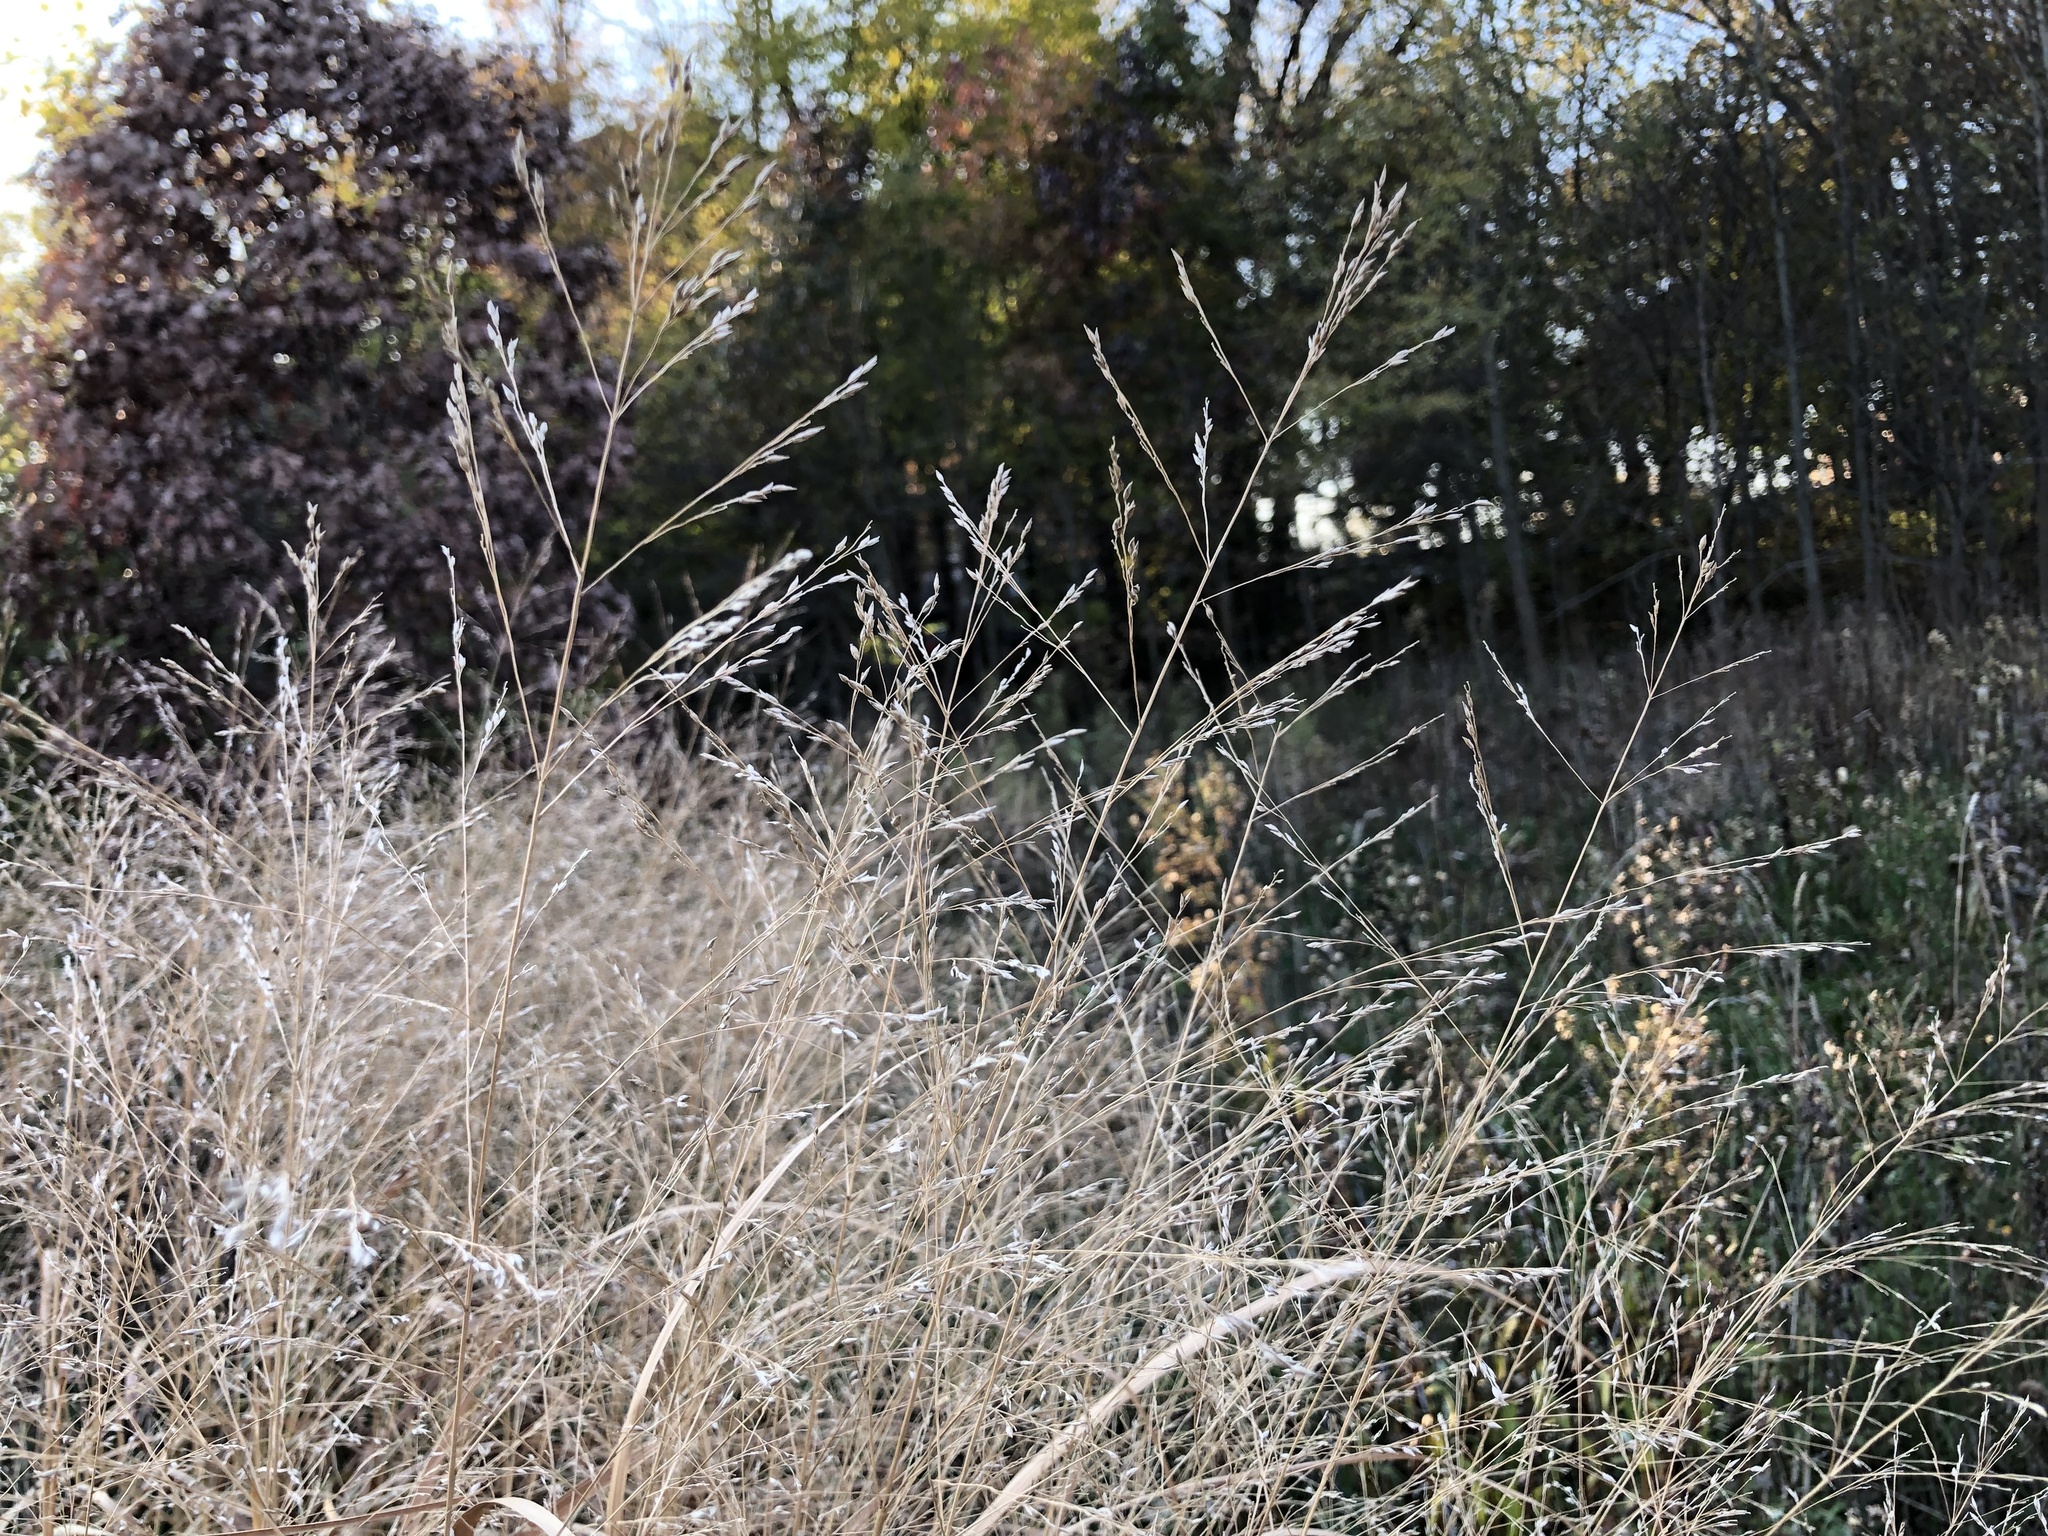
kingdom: Plantae
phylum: Tracheophyta
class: Liliopsida
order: Poales
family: Poaceae
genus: Panicum
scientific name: Panicum virgatum
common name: Switchgrass
